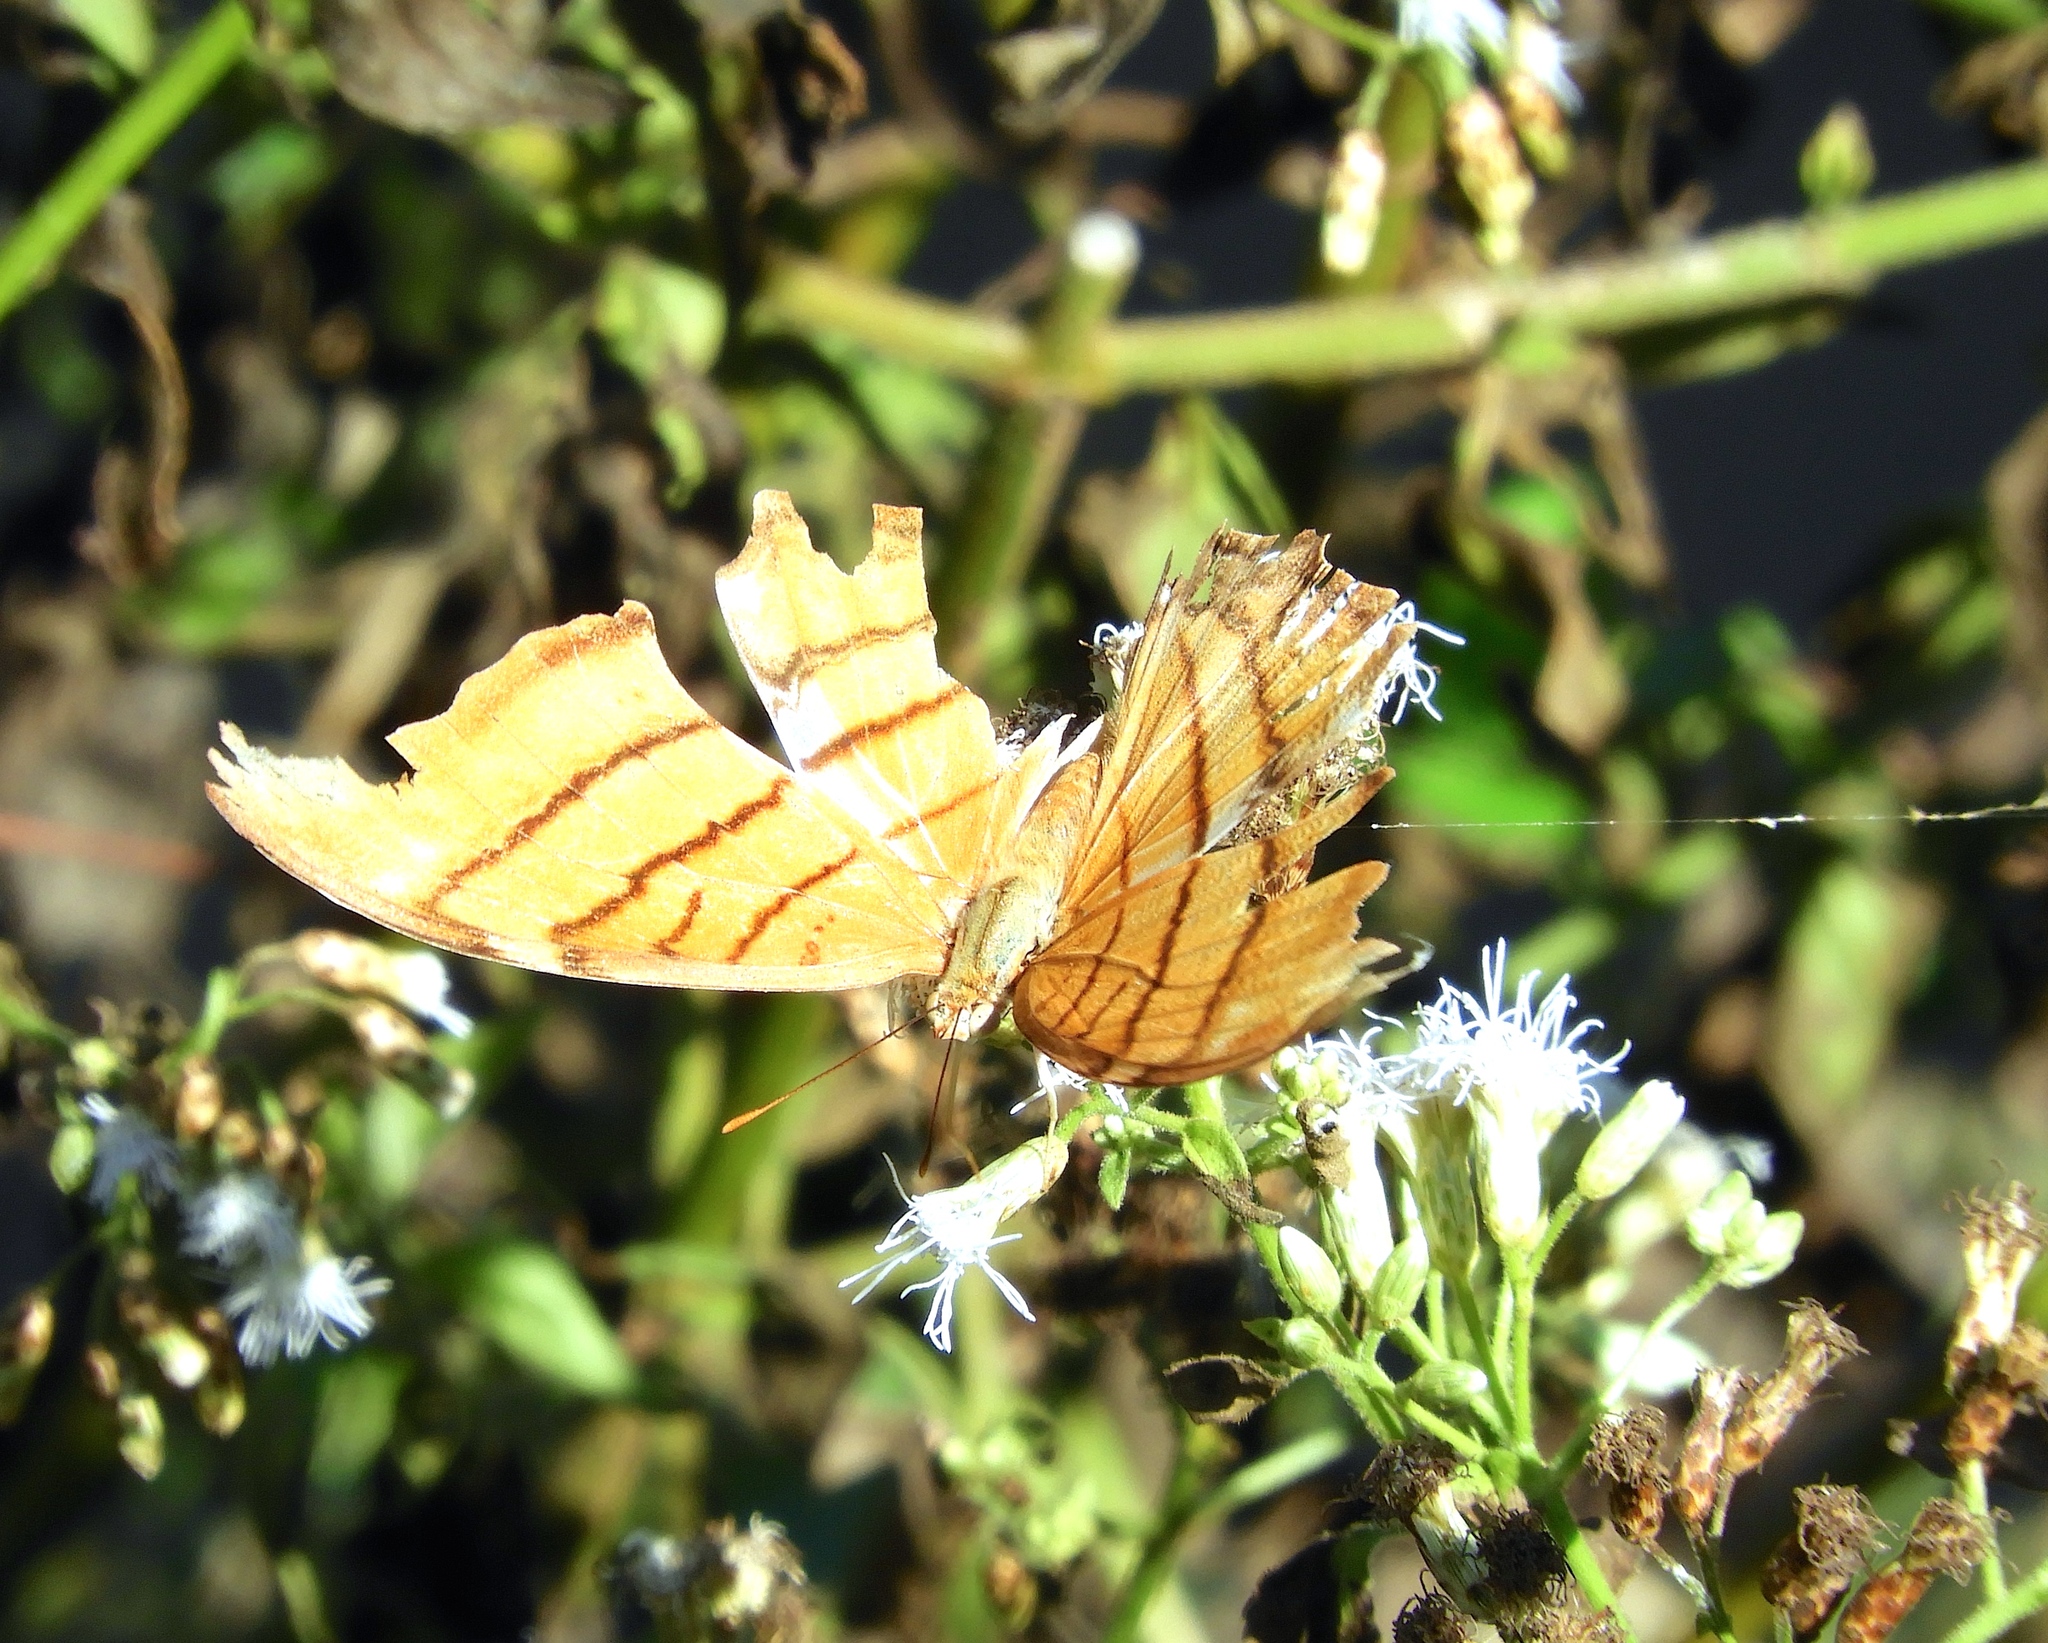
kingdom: Animalia
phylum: Arthropoda
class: Insecta
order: Lepidoptera
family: Nymphalidae
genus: Marpesia
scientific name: Marpesia petreus
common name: Red dagger wing
